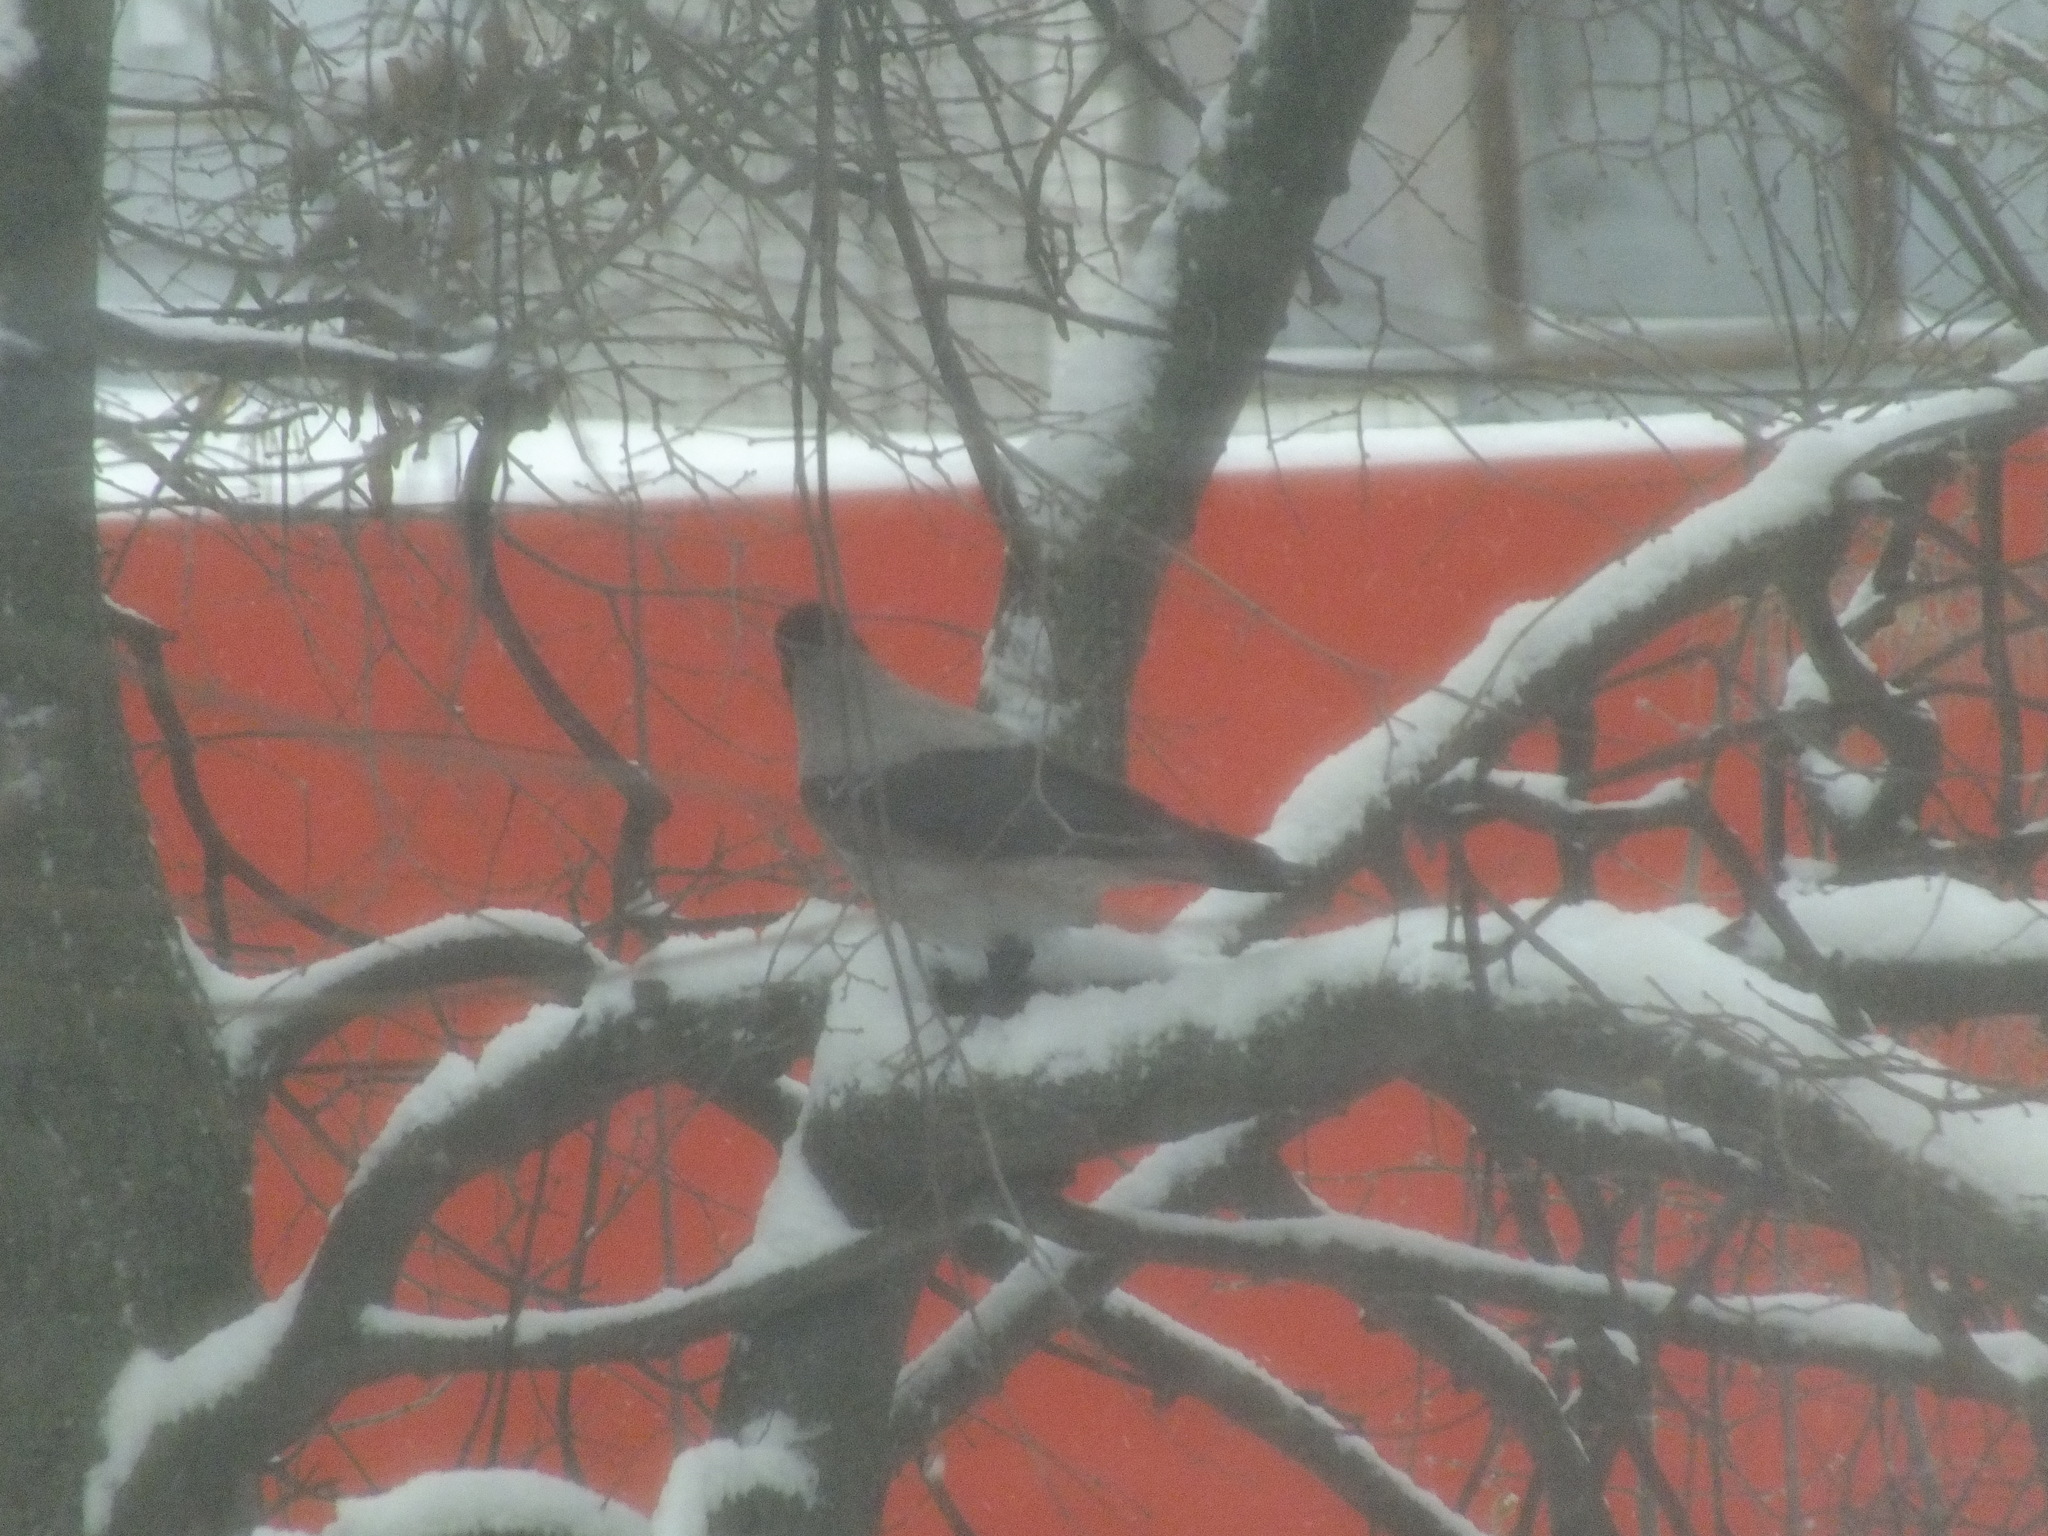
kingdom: Animalia
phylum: Chordata
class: Aves
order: Passeriformes
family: Corvidae
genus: Corvus
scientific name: Corvus cornix
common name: Hooded crow
